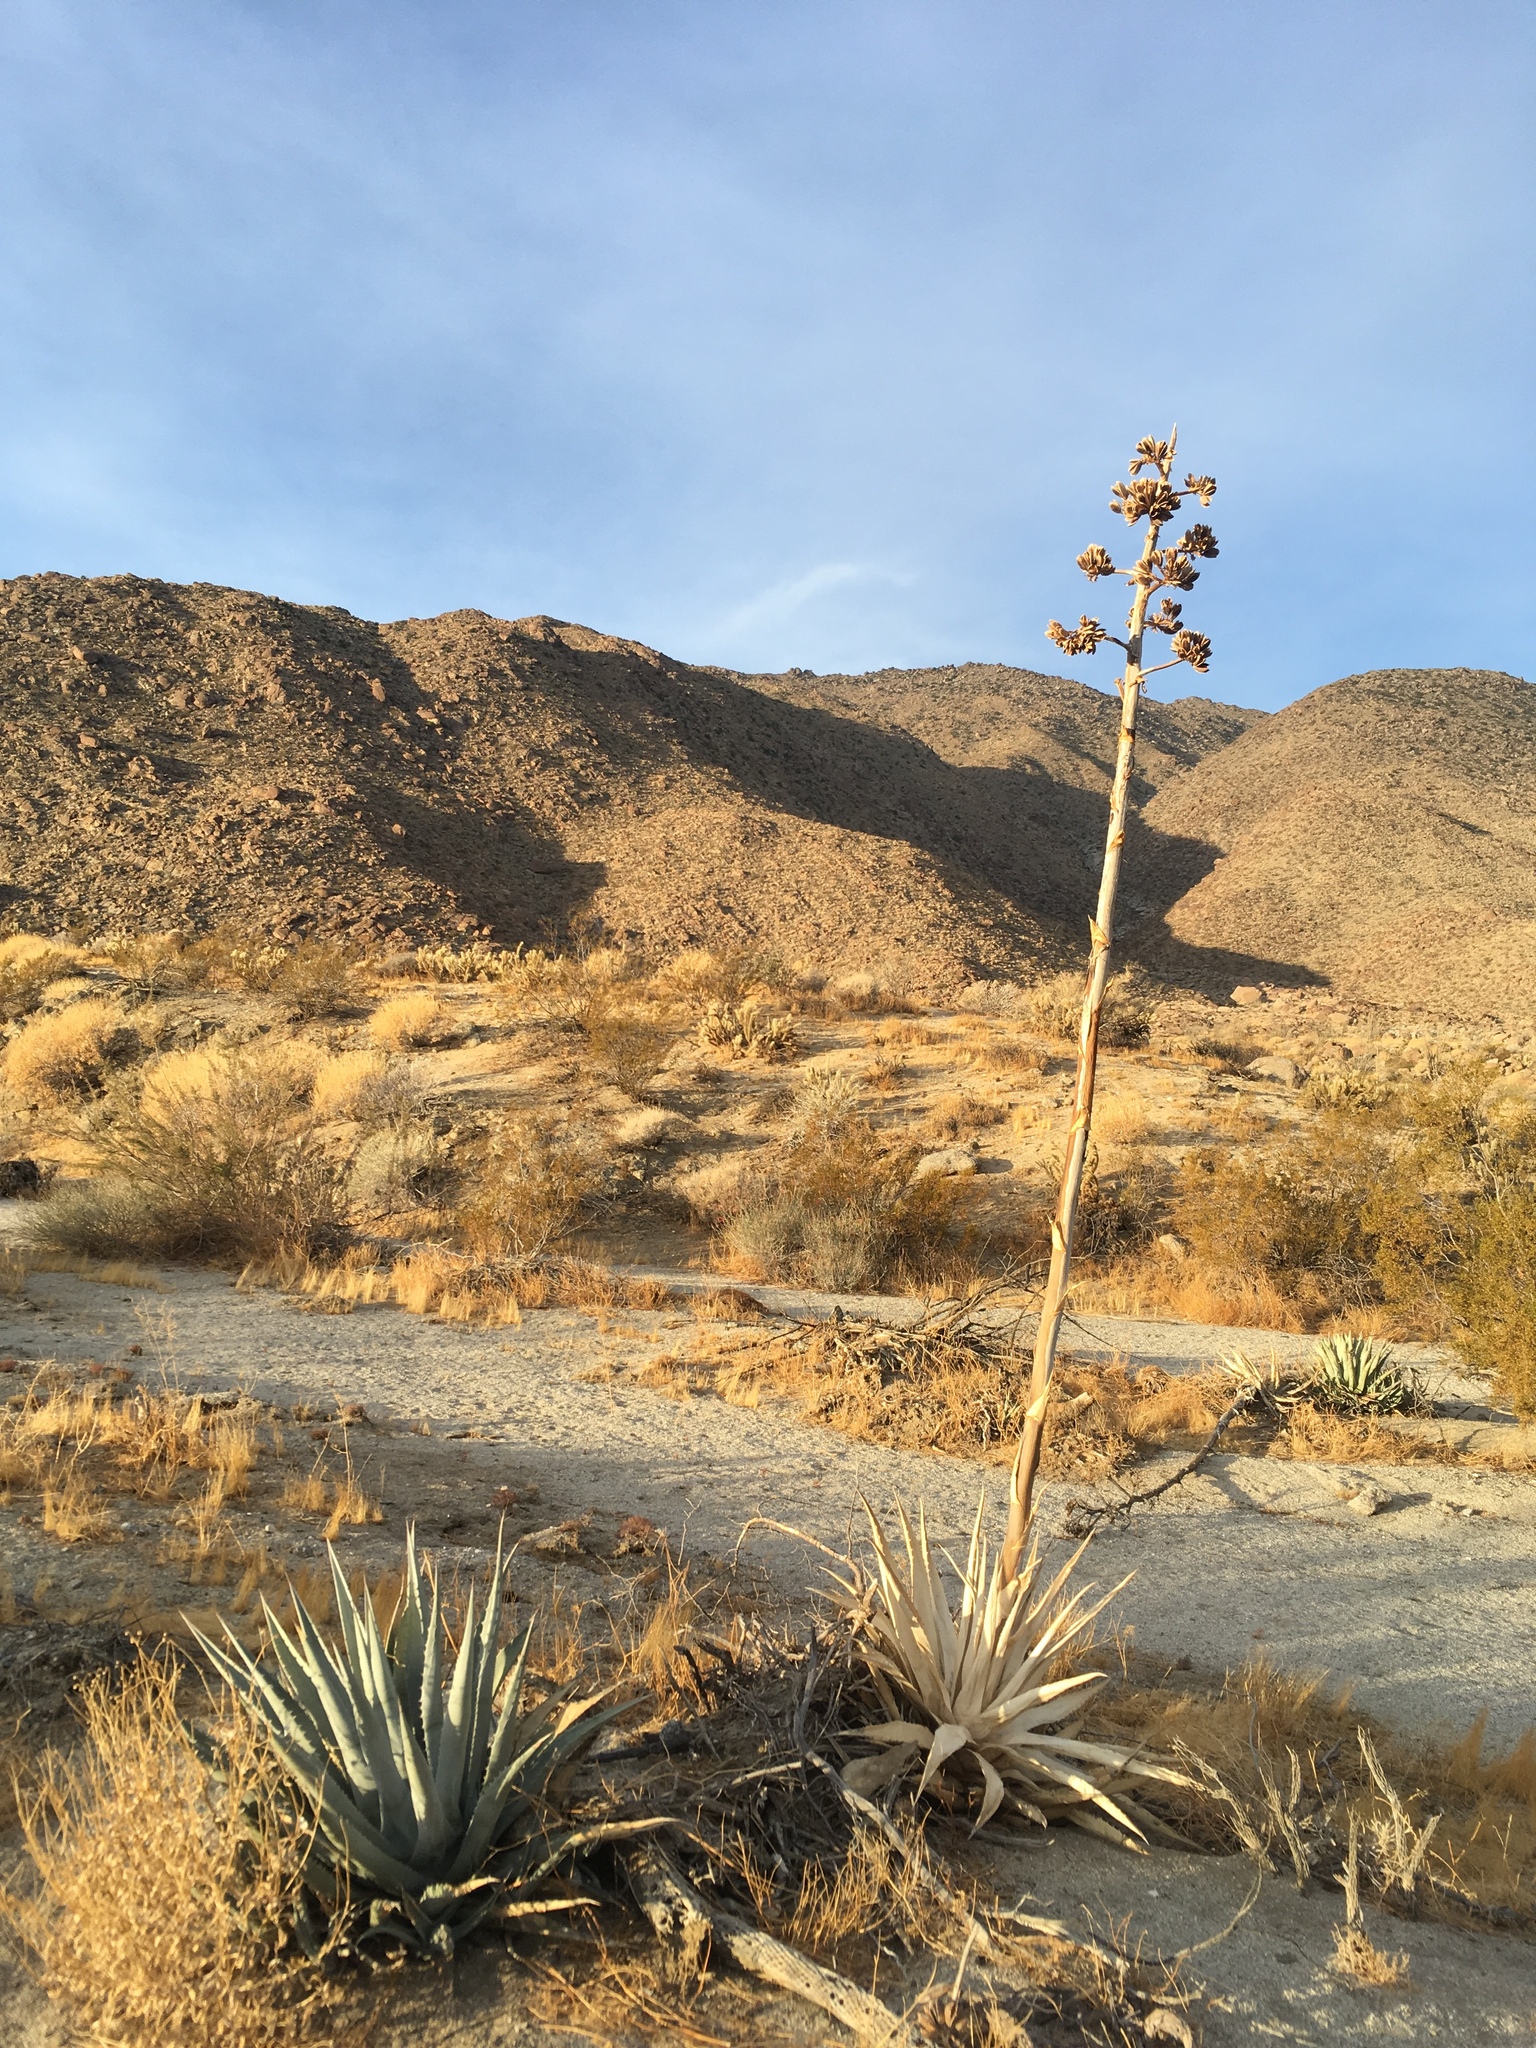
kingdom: Plantae
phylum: Tracheophyta
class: Liliopsida
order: Asparagales
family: Asparagaceae
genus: Agave
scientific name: Agave deserti
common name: Desert agave
